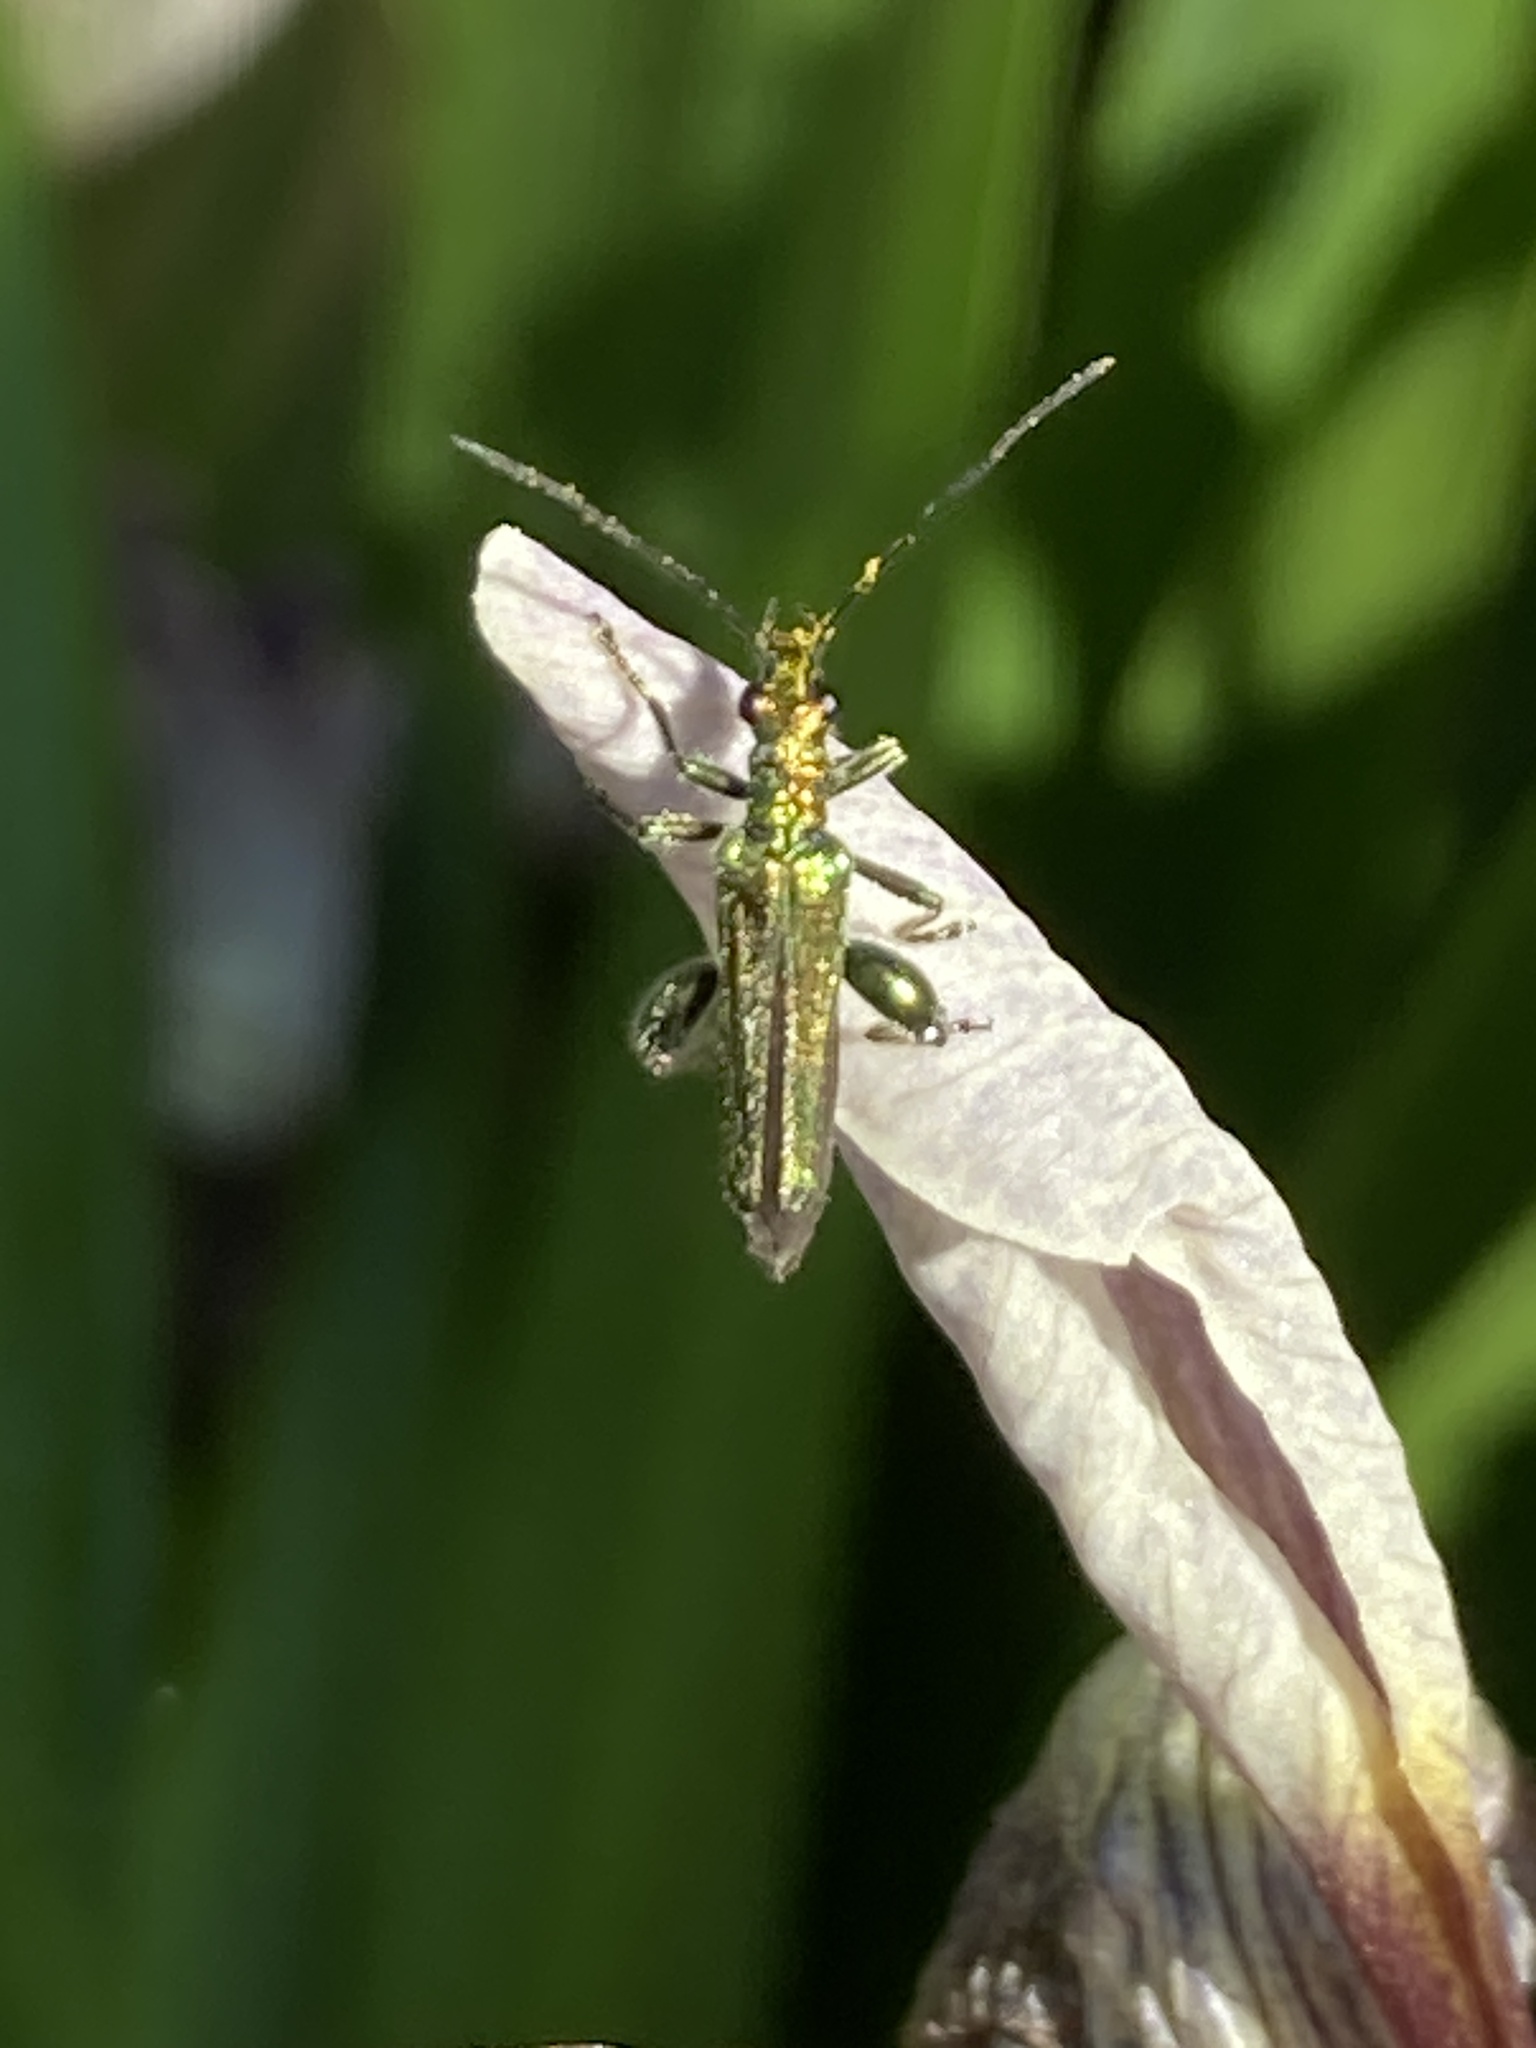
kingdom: Animalia
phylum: Arthropoda
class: Insecta
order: Coleoptera
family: Oedemeridae
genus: Oedemera
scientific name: Oedemera nobilis
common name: Swollen-thighed beetle
